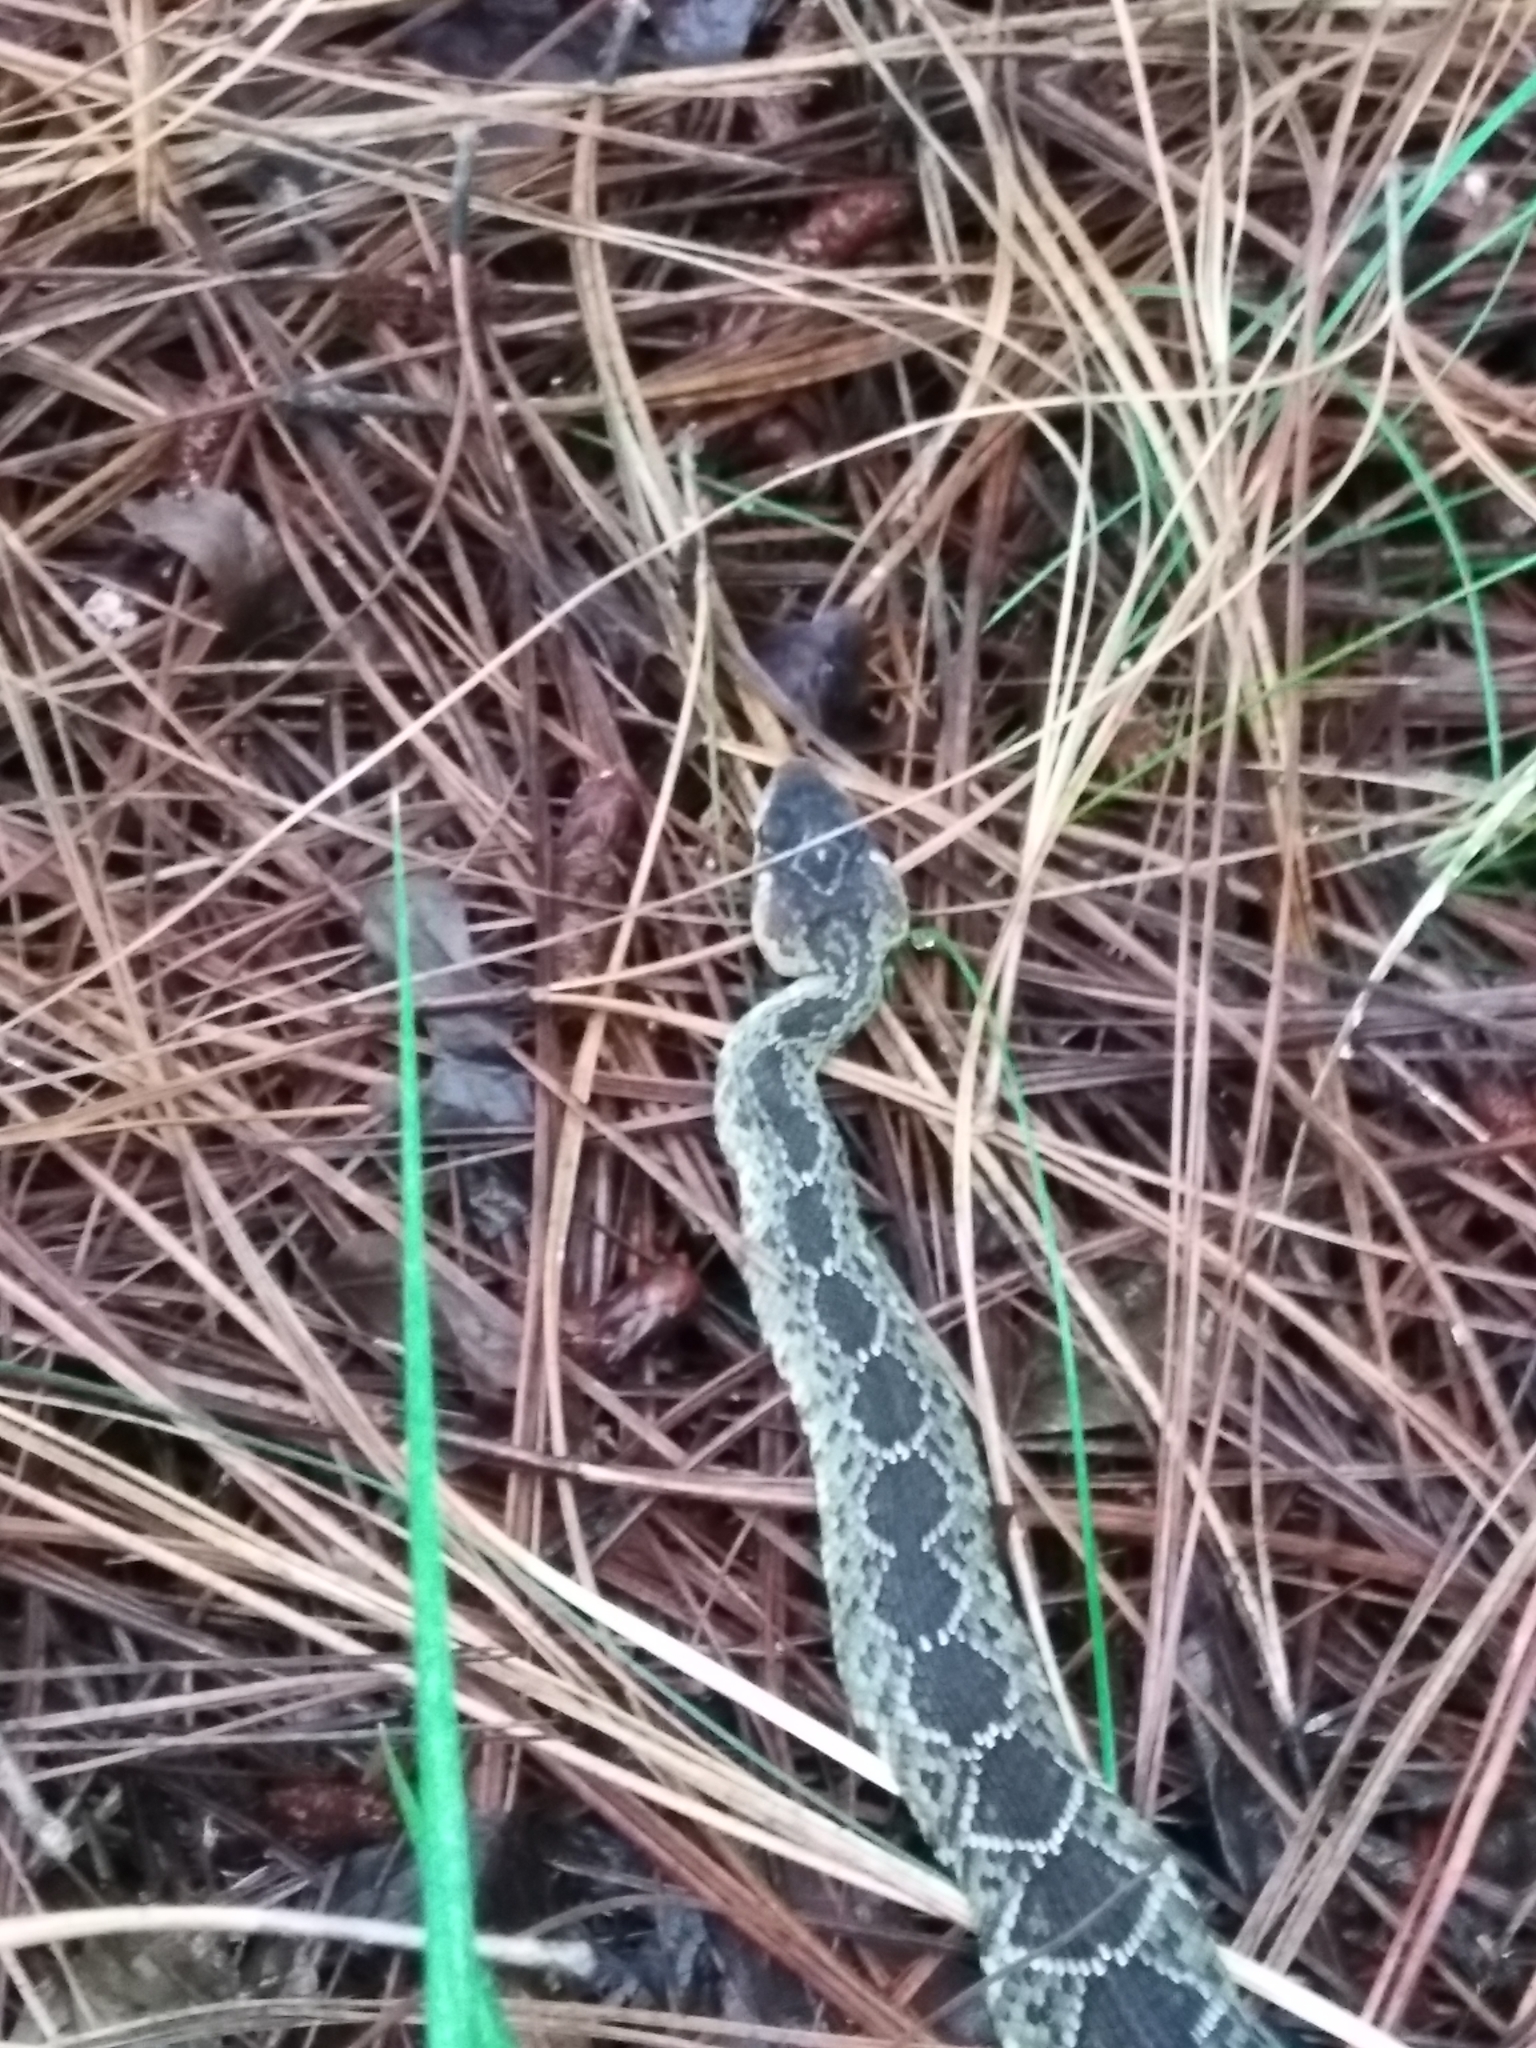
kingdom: Animalia
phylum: Chordata
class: Squamata
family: Viperidae
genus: Crotalus
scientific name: Crotalus molossus
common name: Black tailed rattlesnake
